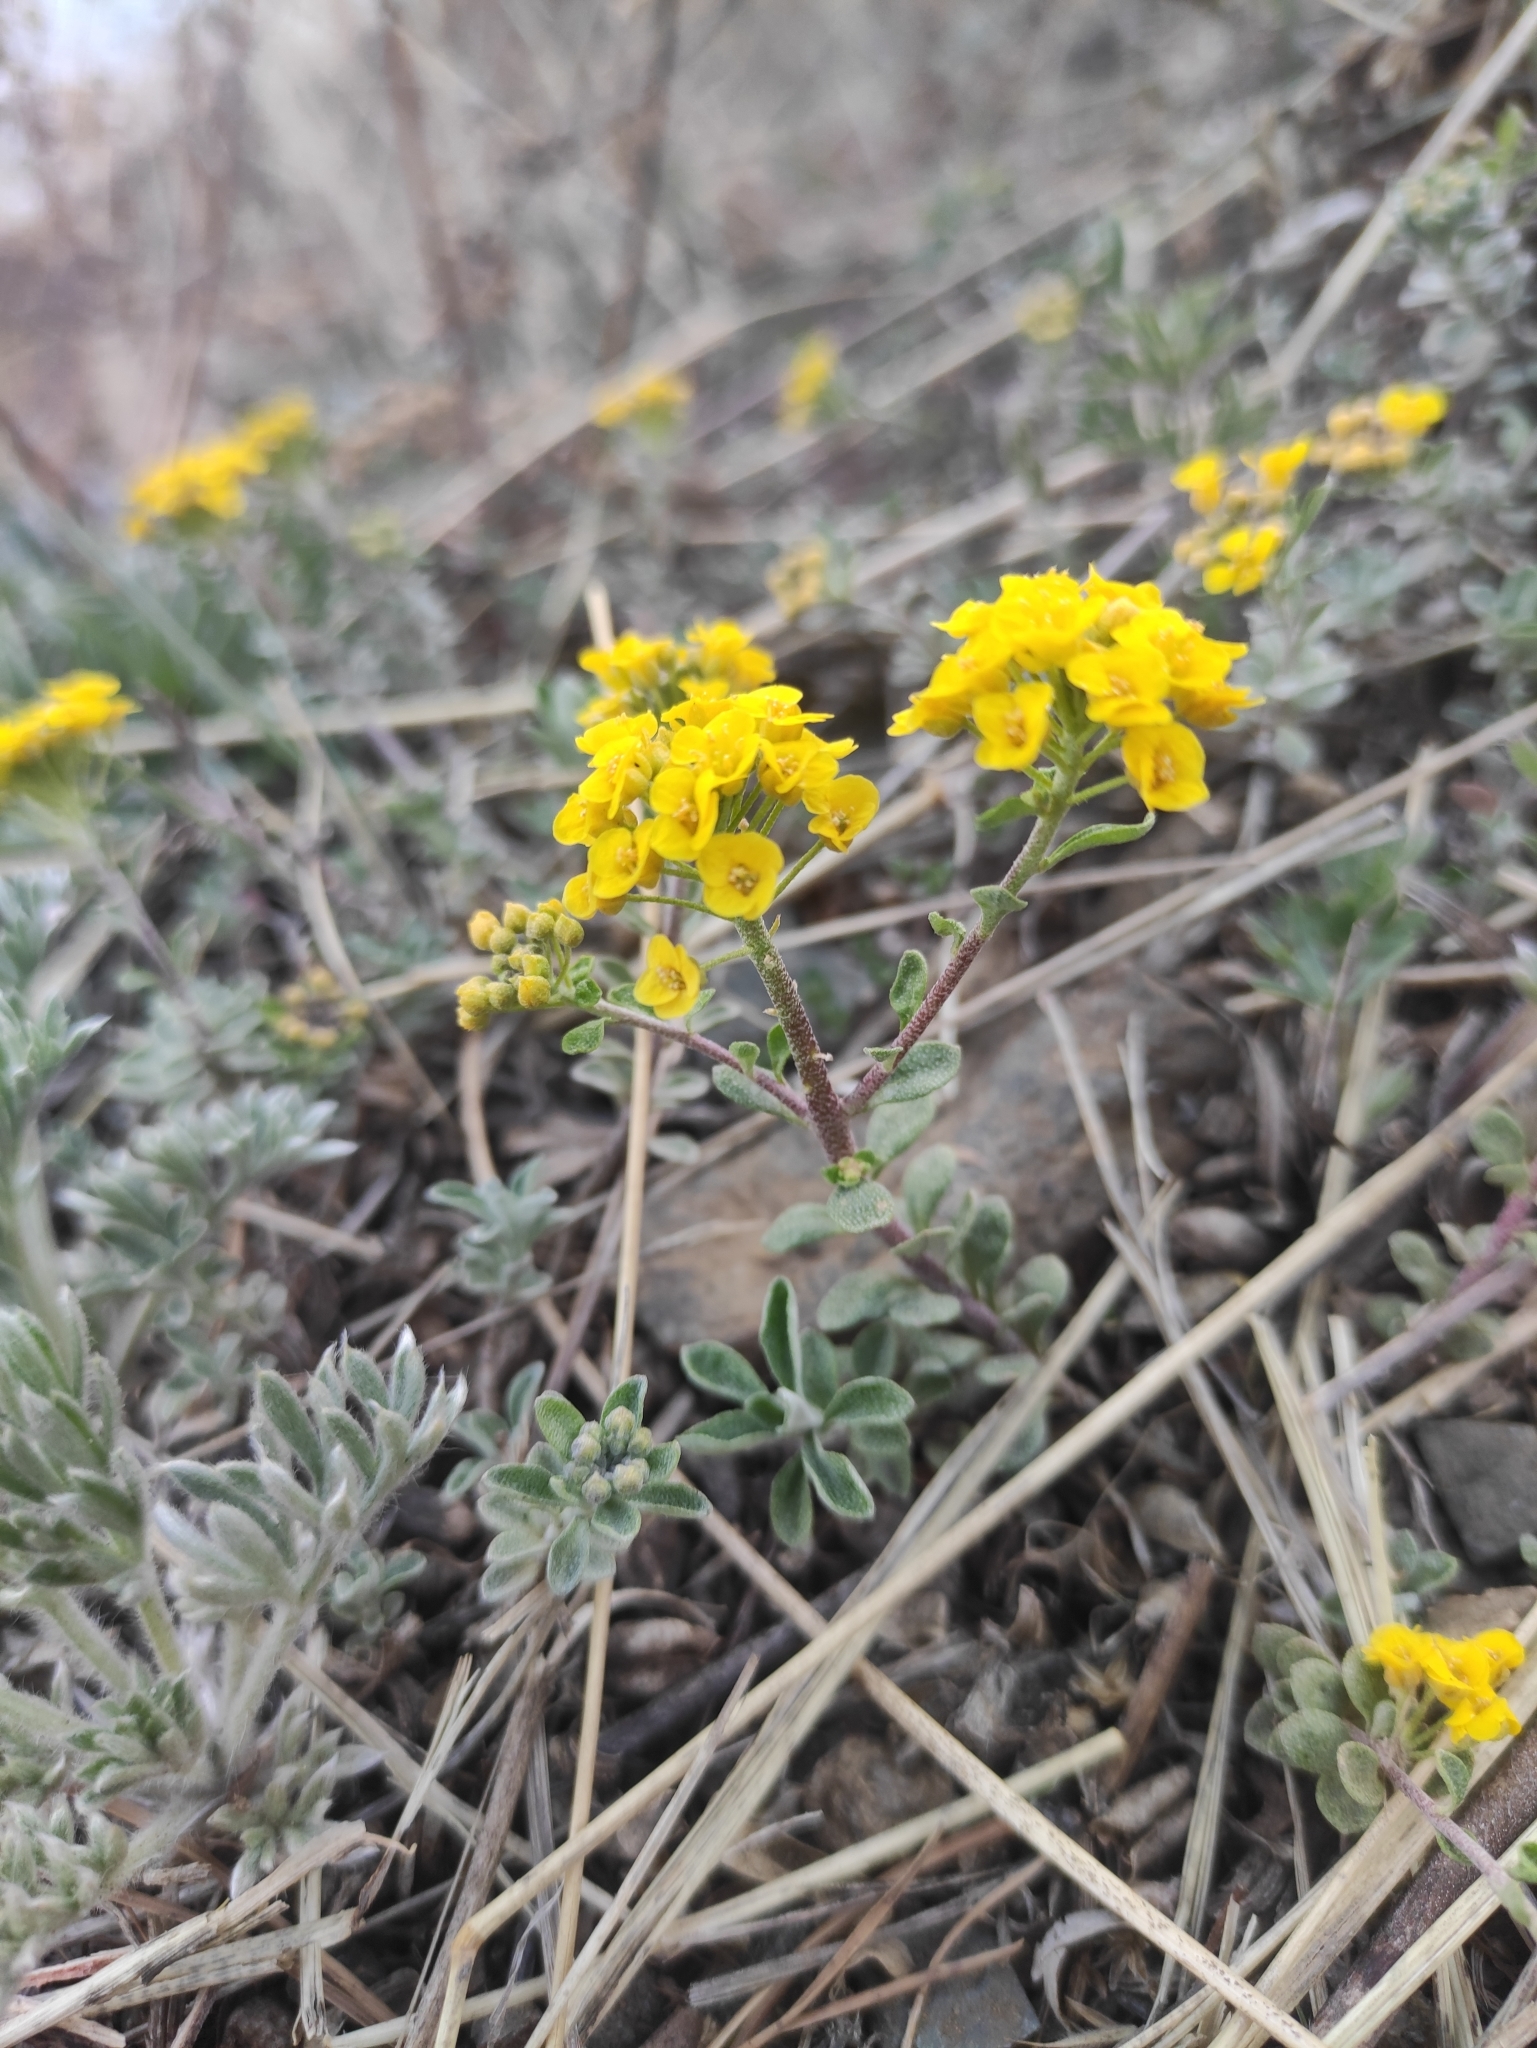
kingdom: Plantae
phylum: Tracheophyta
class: Magnoliopsida
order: Brassicales
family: Brassicaceae
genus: Odontarrhena
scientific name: Odontarrhena obovata
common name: American alyssum
